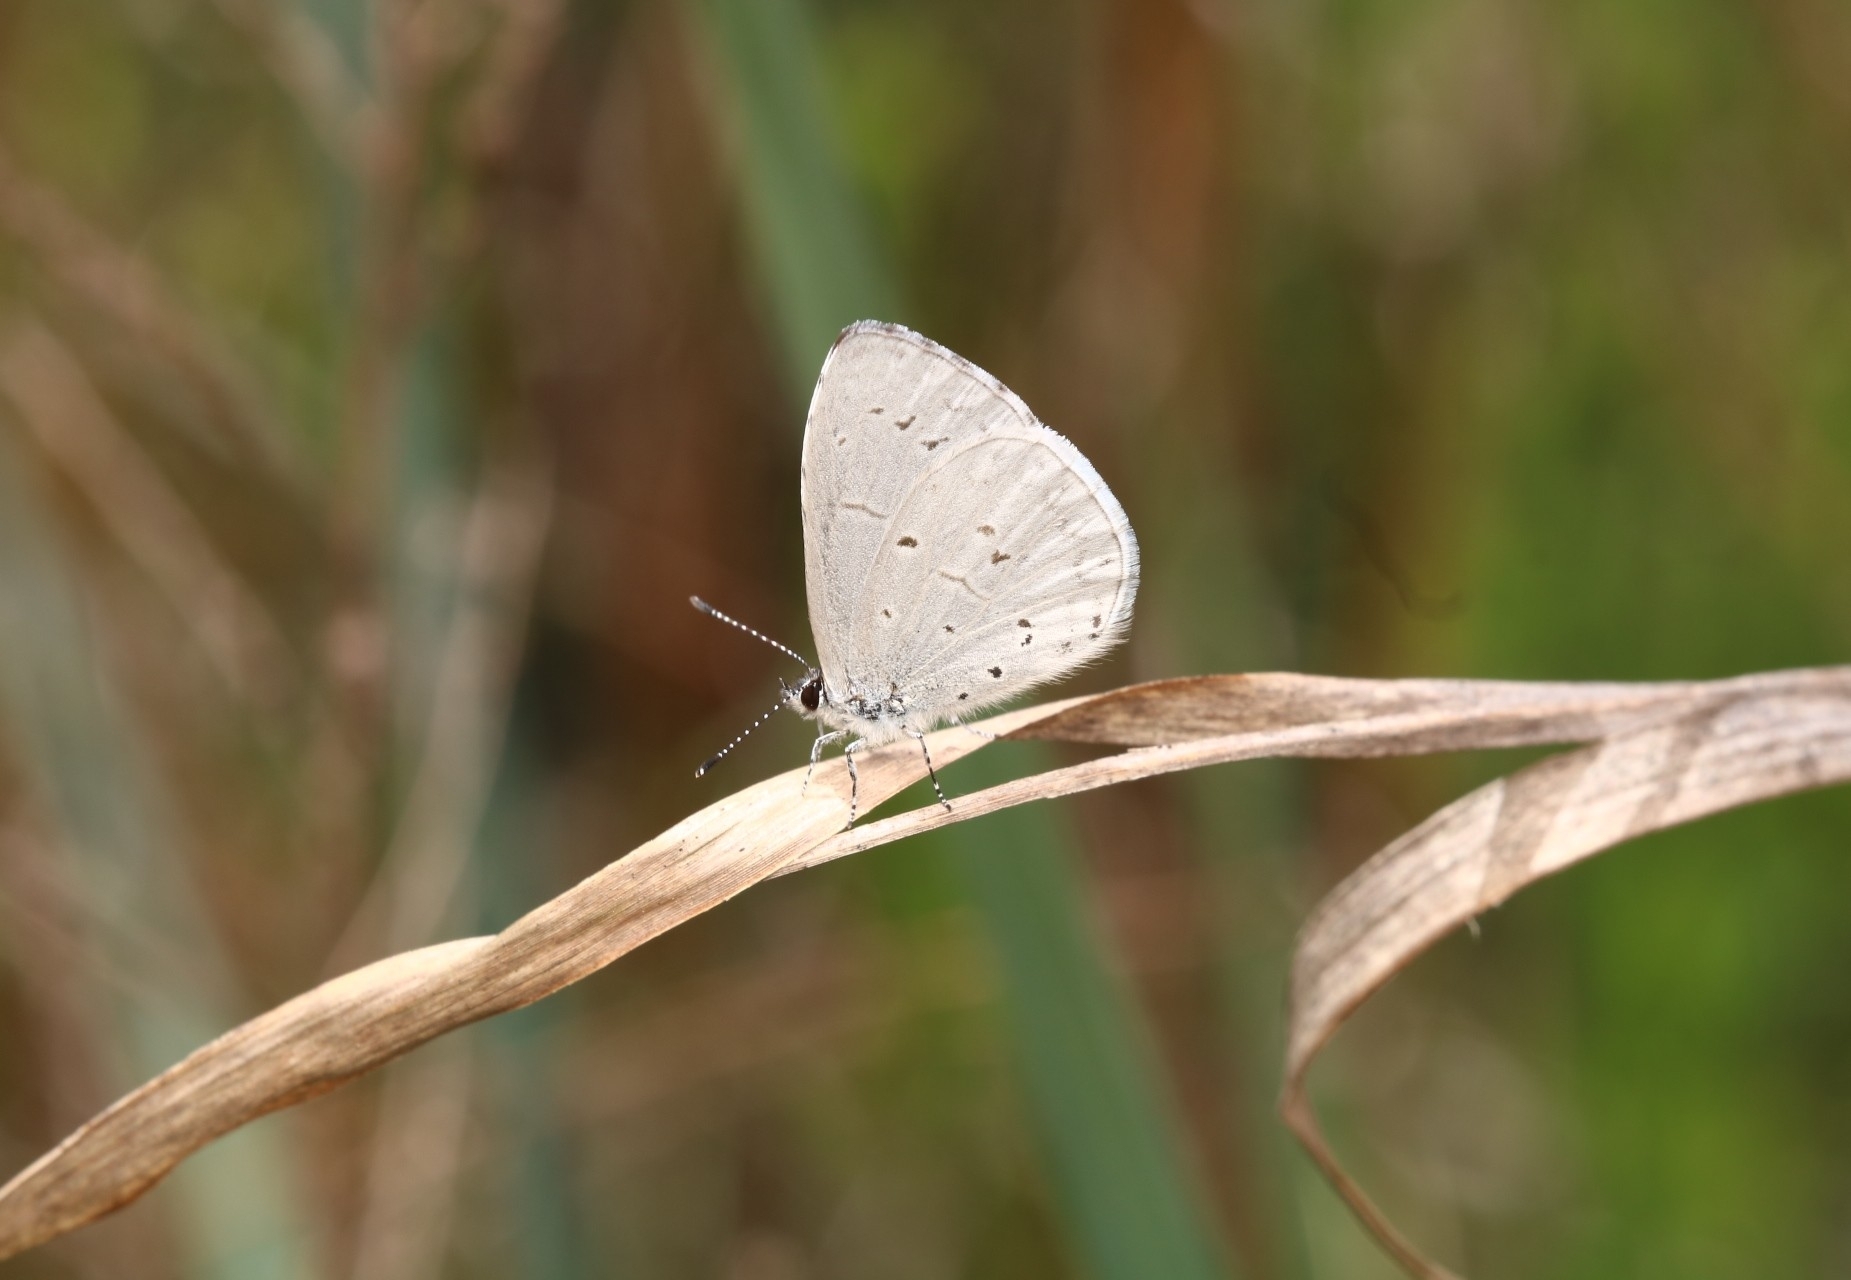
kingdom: Animalia
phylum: Arthropoda
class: Insecta
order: Lepidoptera
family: Lycaenidae
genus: Cyaniris
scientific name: Cyaniris neglecta
